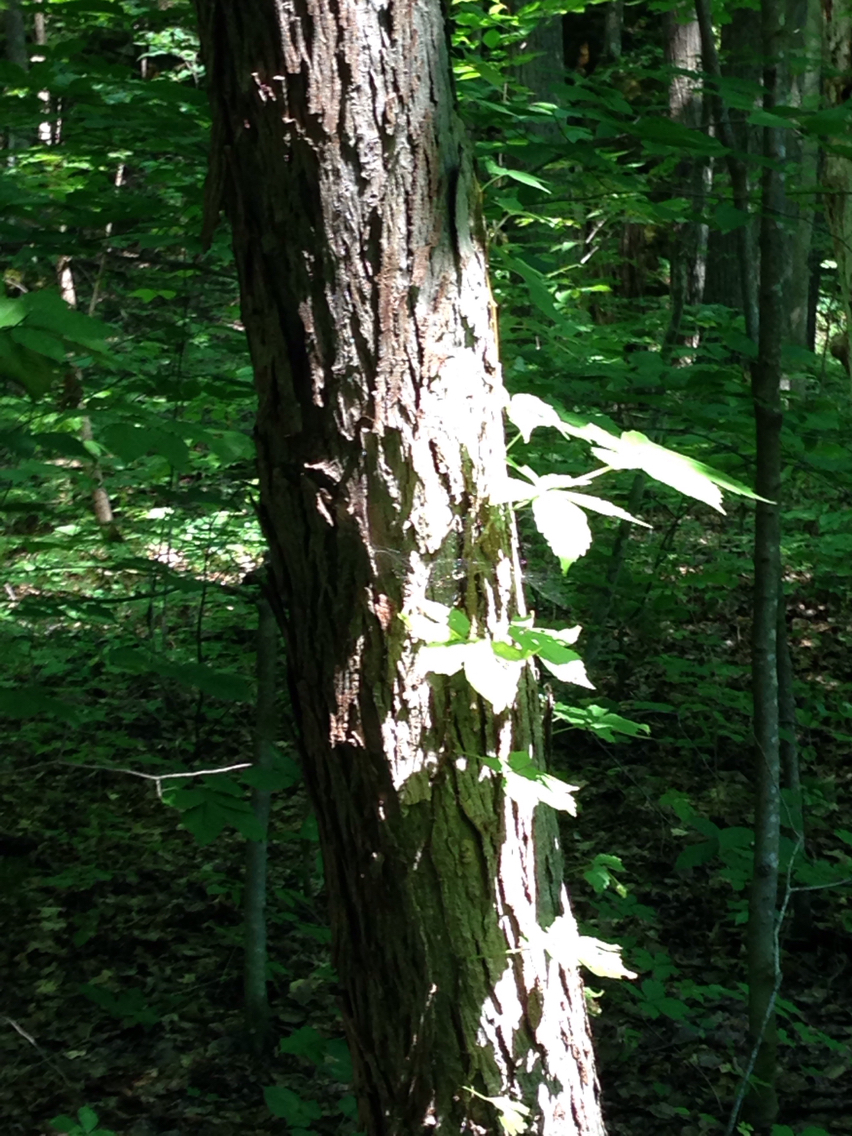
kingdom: Plantae
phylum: Tracheophyta
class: Magnoliopsida
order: Fagales
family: Juglandaceae
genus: Carya
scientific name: Carya ovata
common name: Shagbark hickory
